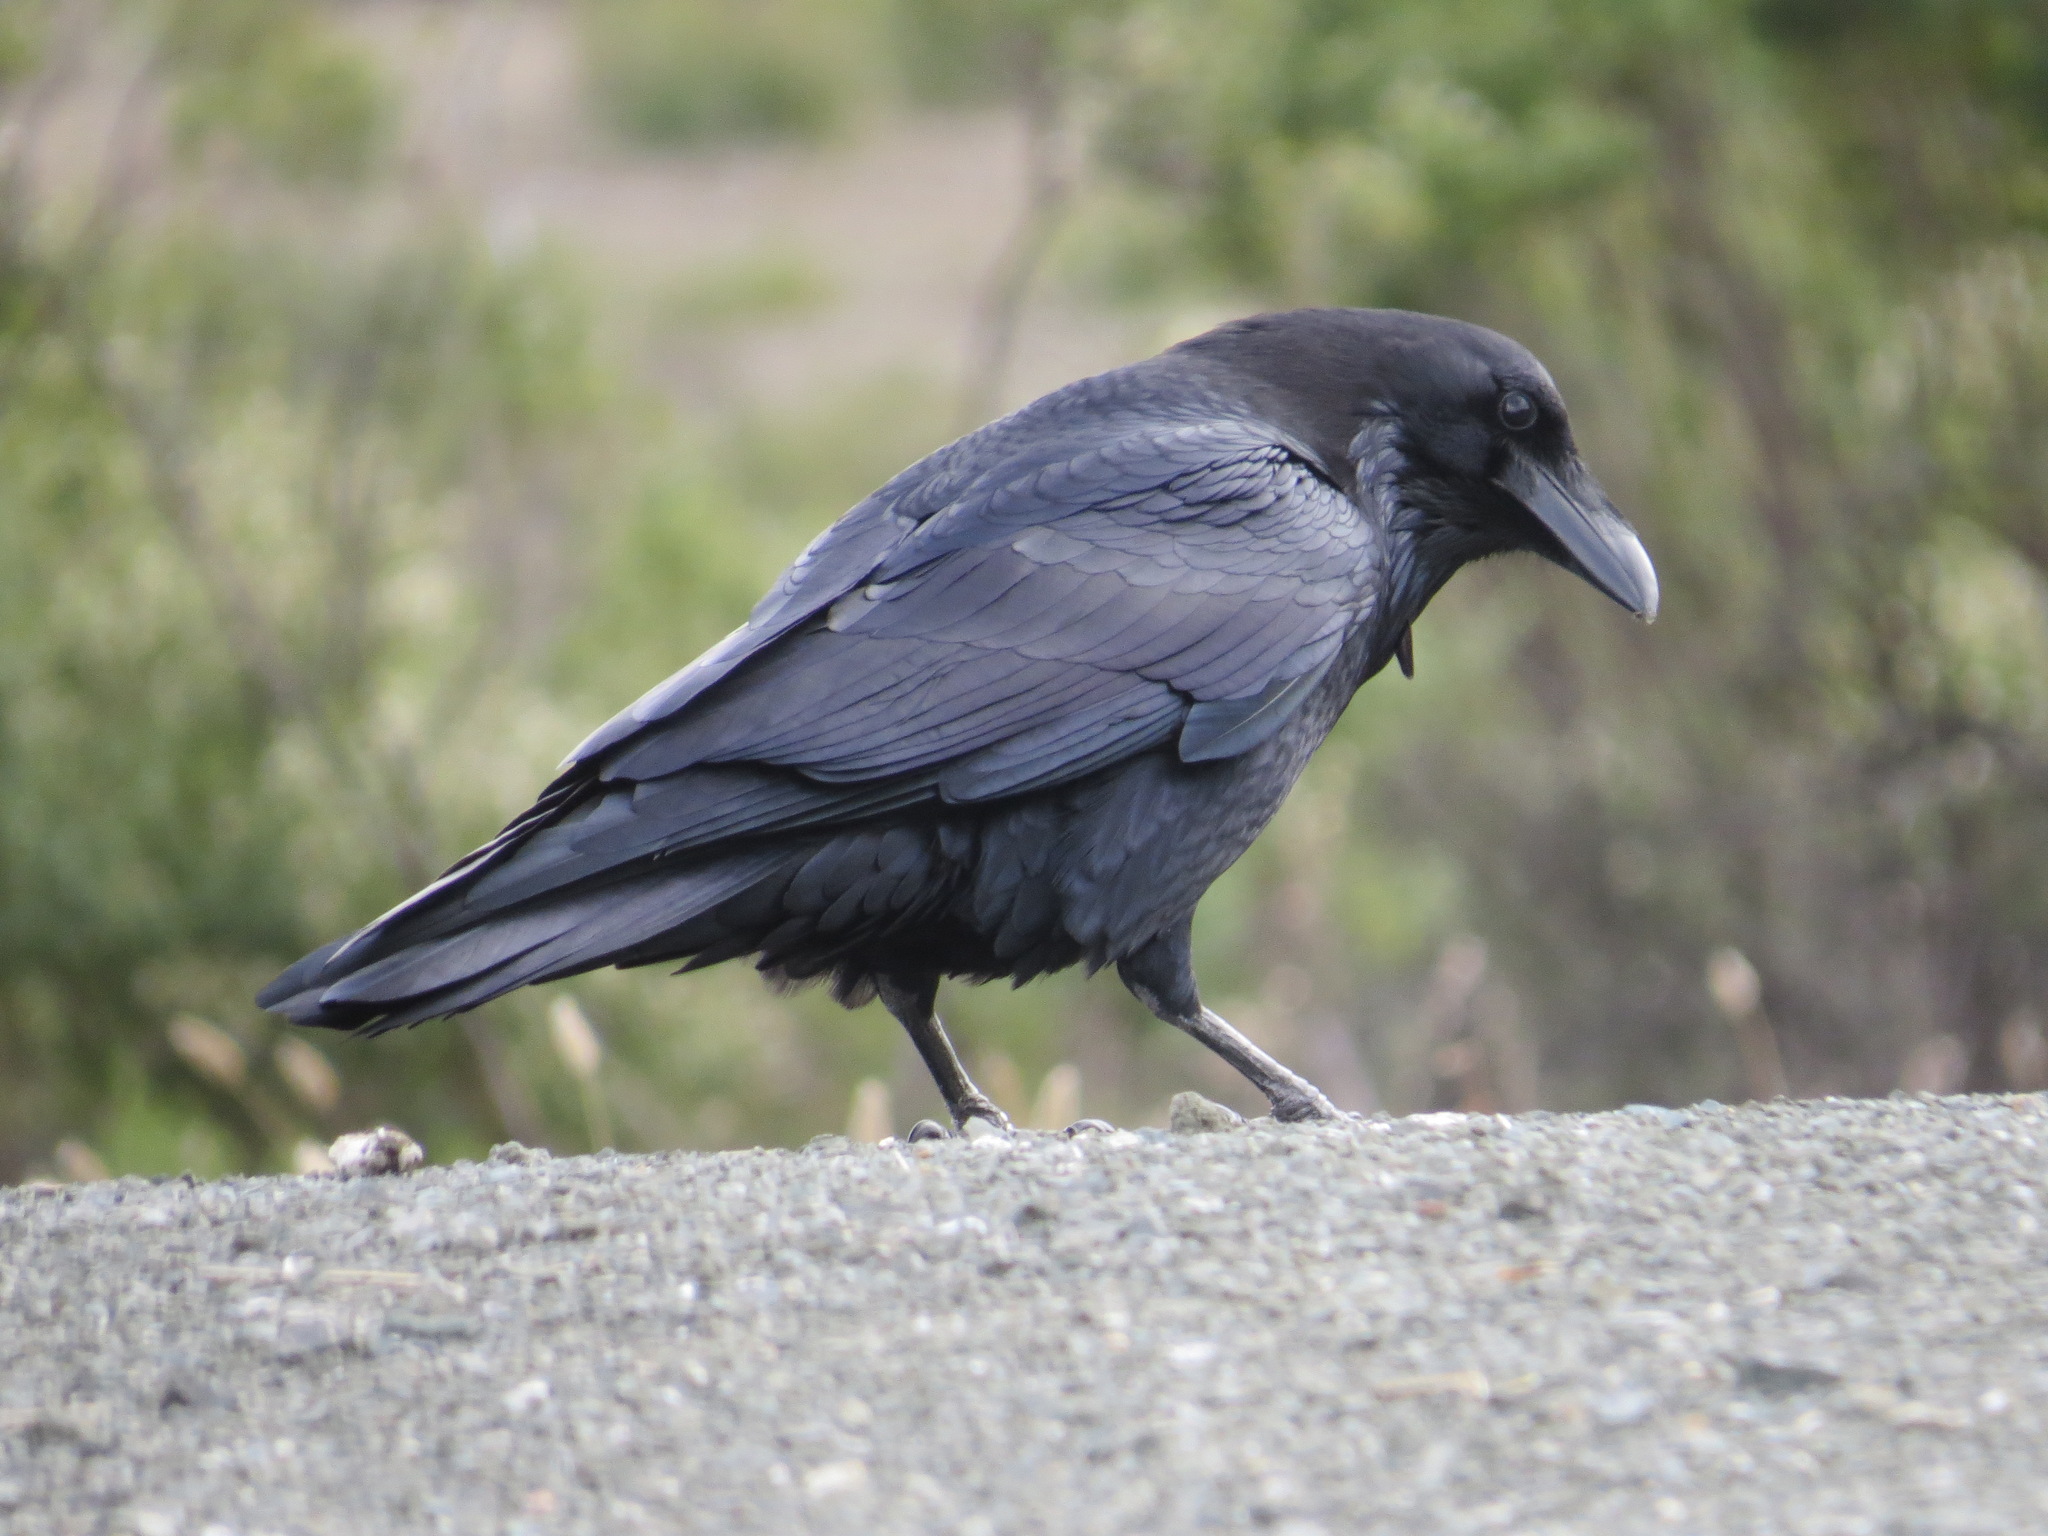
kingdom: Animalia
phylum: Chordata
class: Aves
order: Passeriformes
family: Corvidae
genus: Corvus
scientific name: Corvus corax
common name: Common raven
